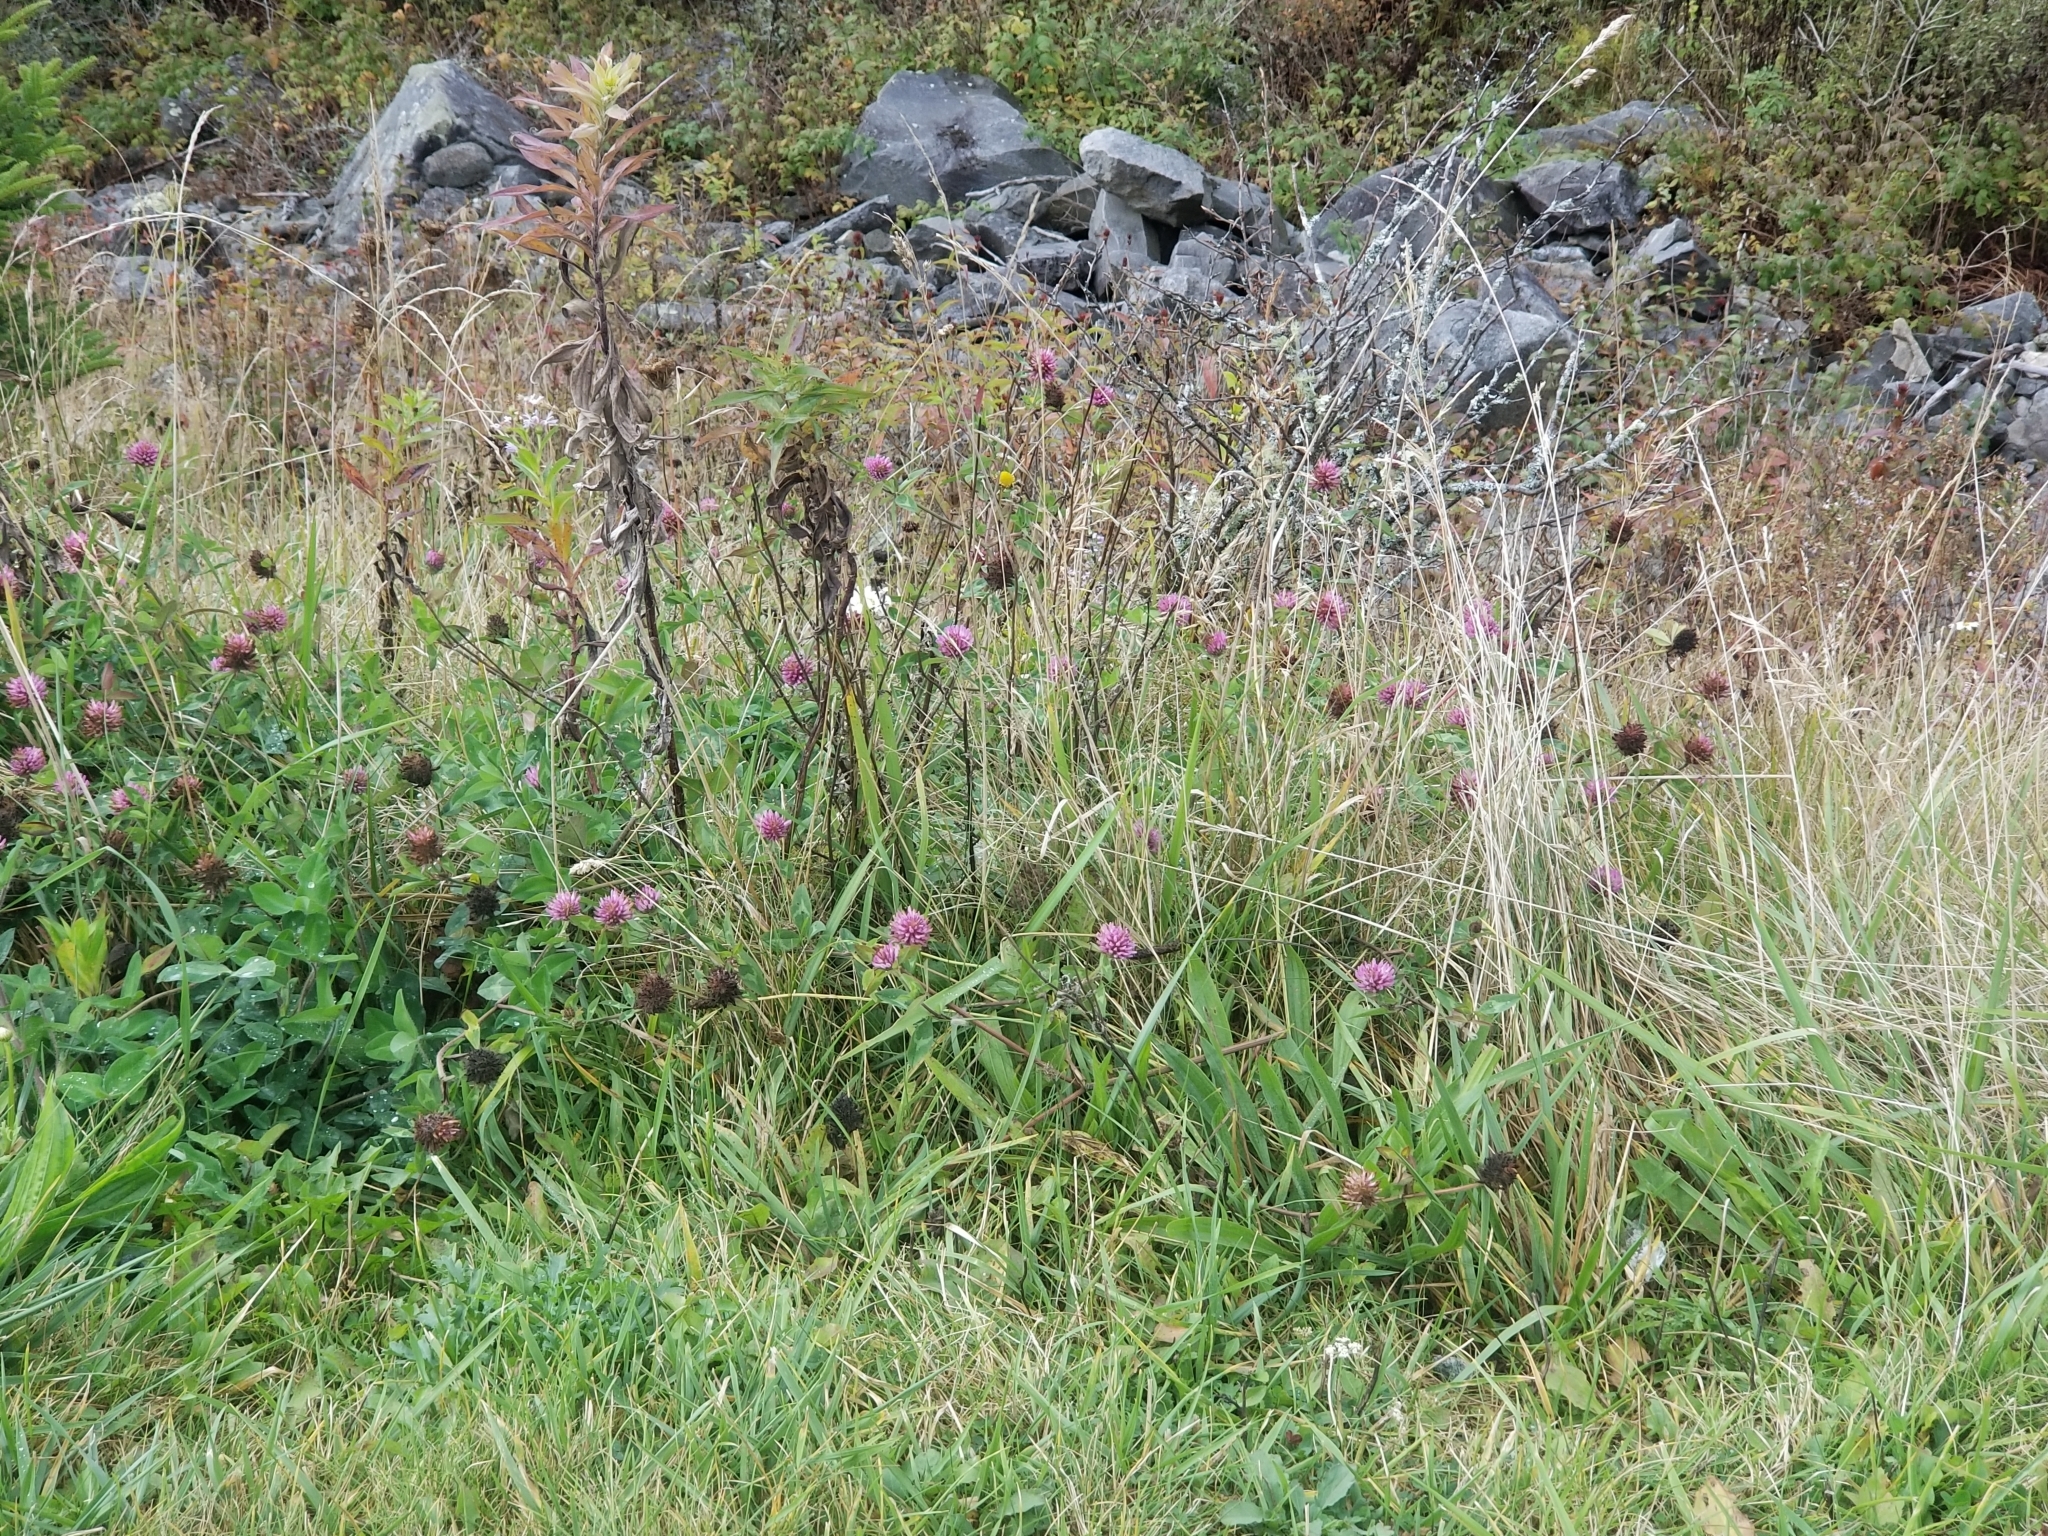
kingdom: Plantae
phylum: Tracheophyta
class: Magnoliopsida
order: Fabales
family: Fabaceae
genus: Trifolium
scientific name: Trifolium pratense
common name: Red clover
